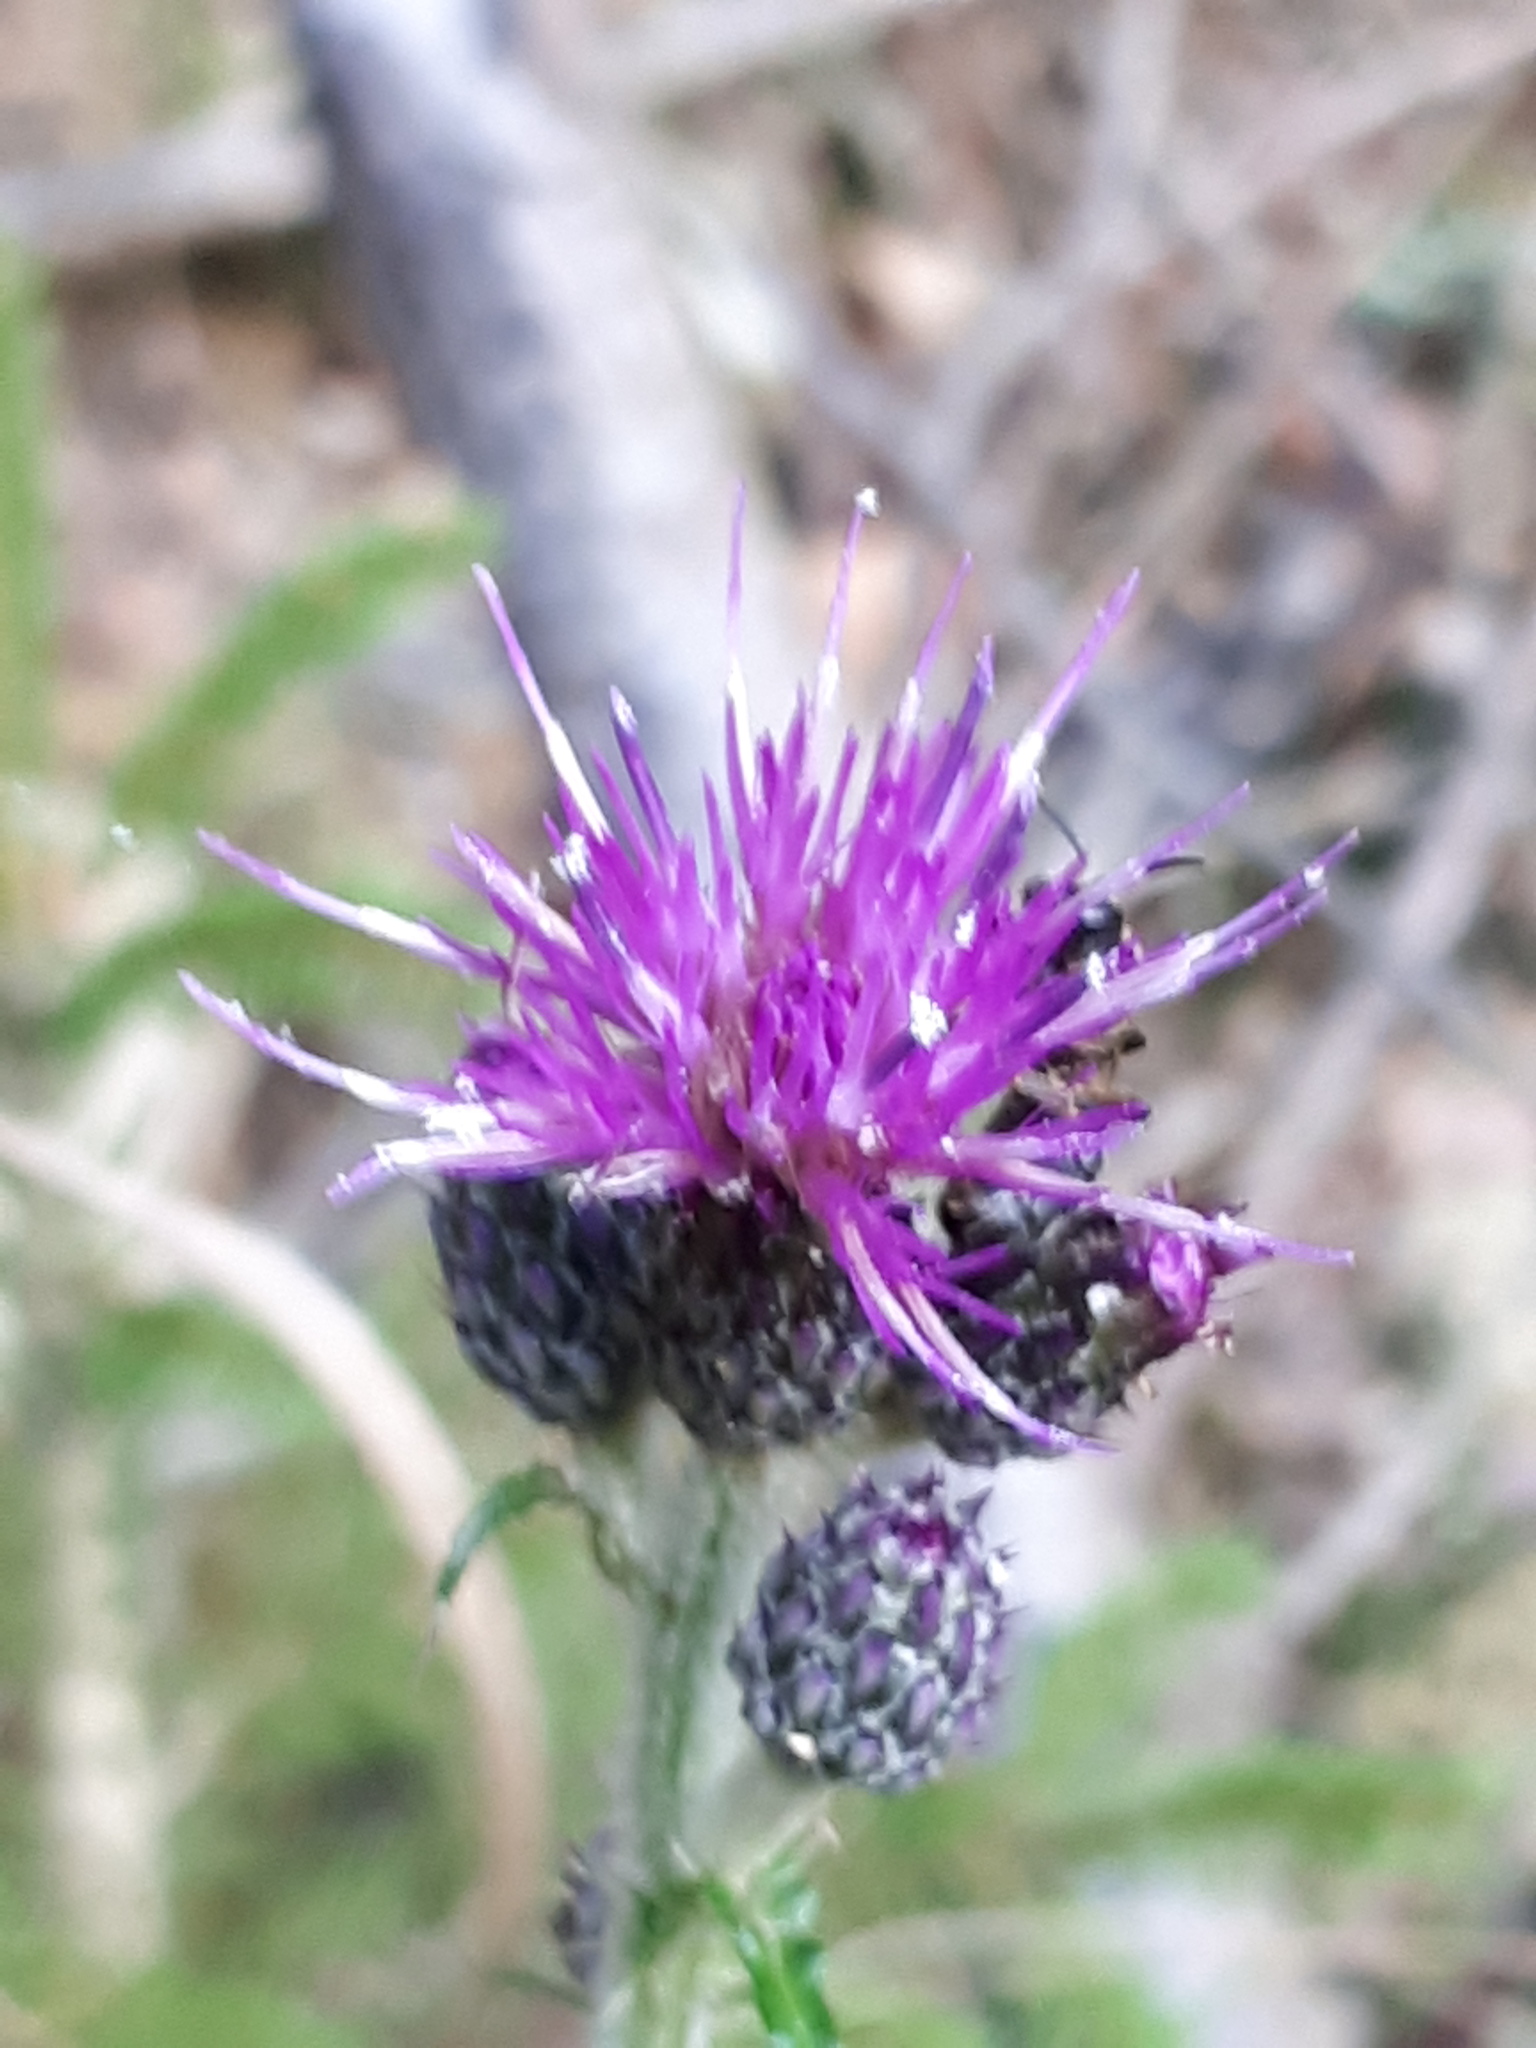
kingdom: Plantae
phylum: Tracheophyta
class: Magnoliopsida
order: Asterales
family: Asteraceae
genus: Cirsium
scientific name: Cirsium palustre
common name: Marsh thistle
